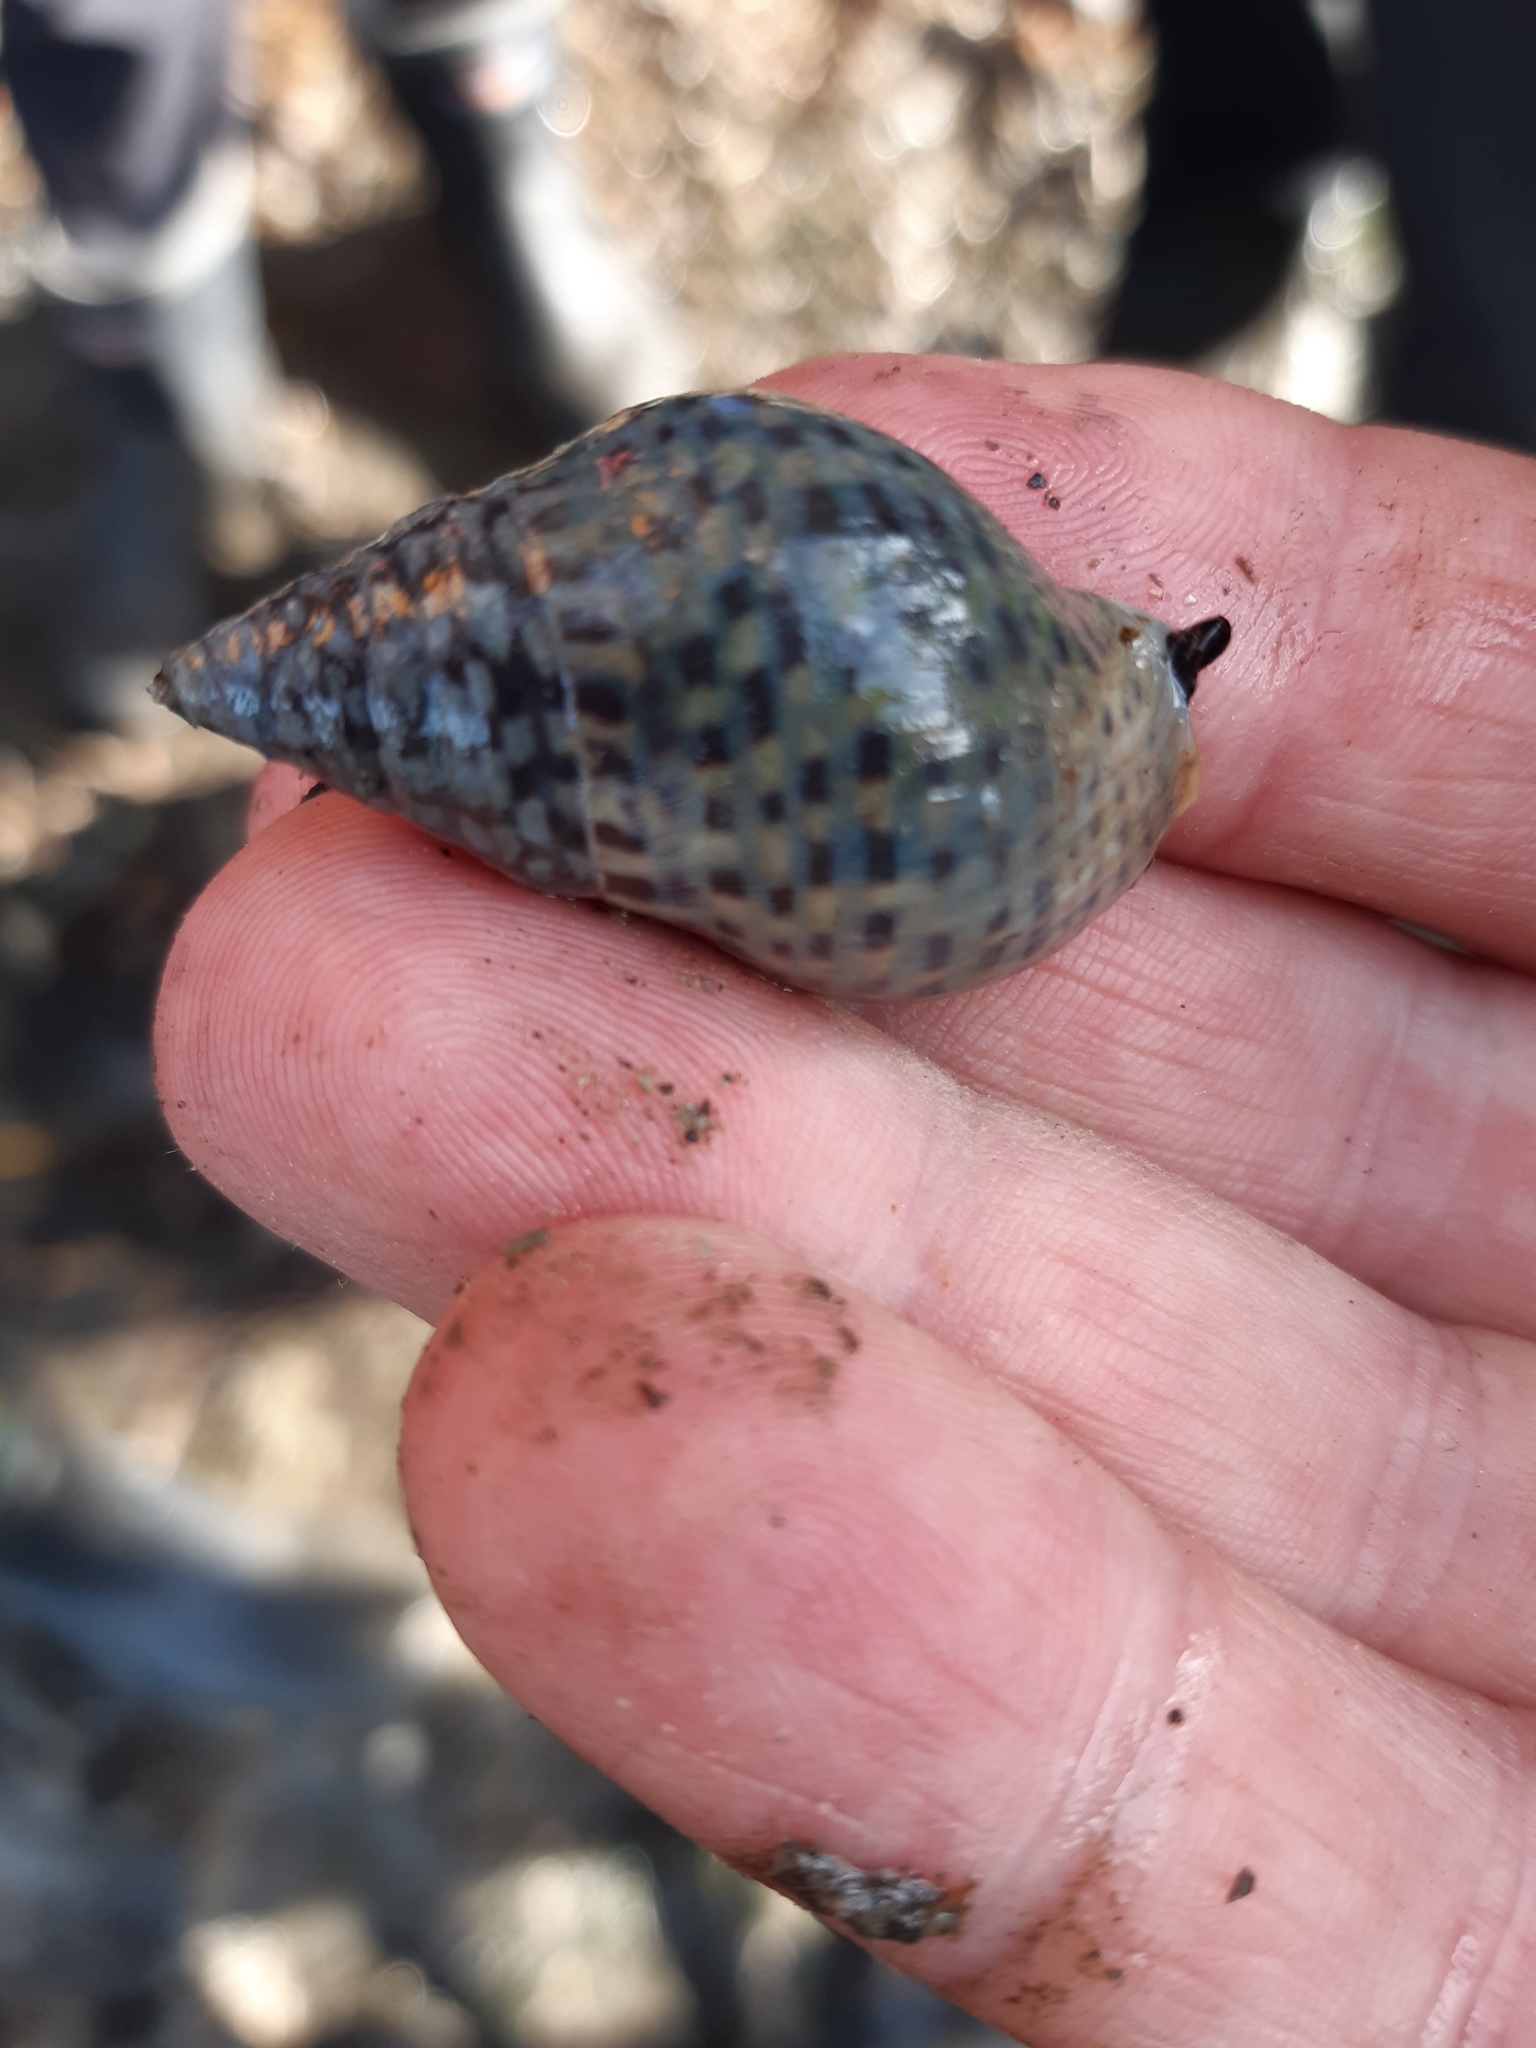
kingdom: Animalia
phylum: Mollusca
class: Gastropoda
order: Neogastropoda
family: Cominellidae
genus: Cominella
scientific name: Cominella maculosa
